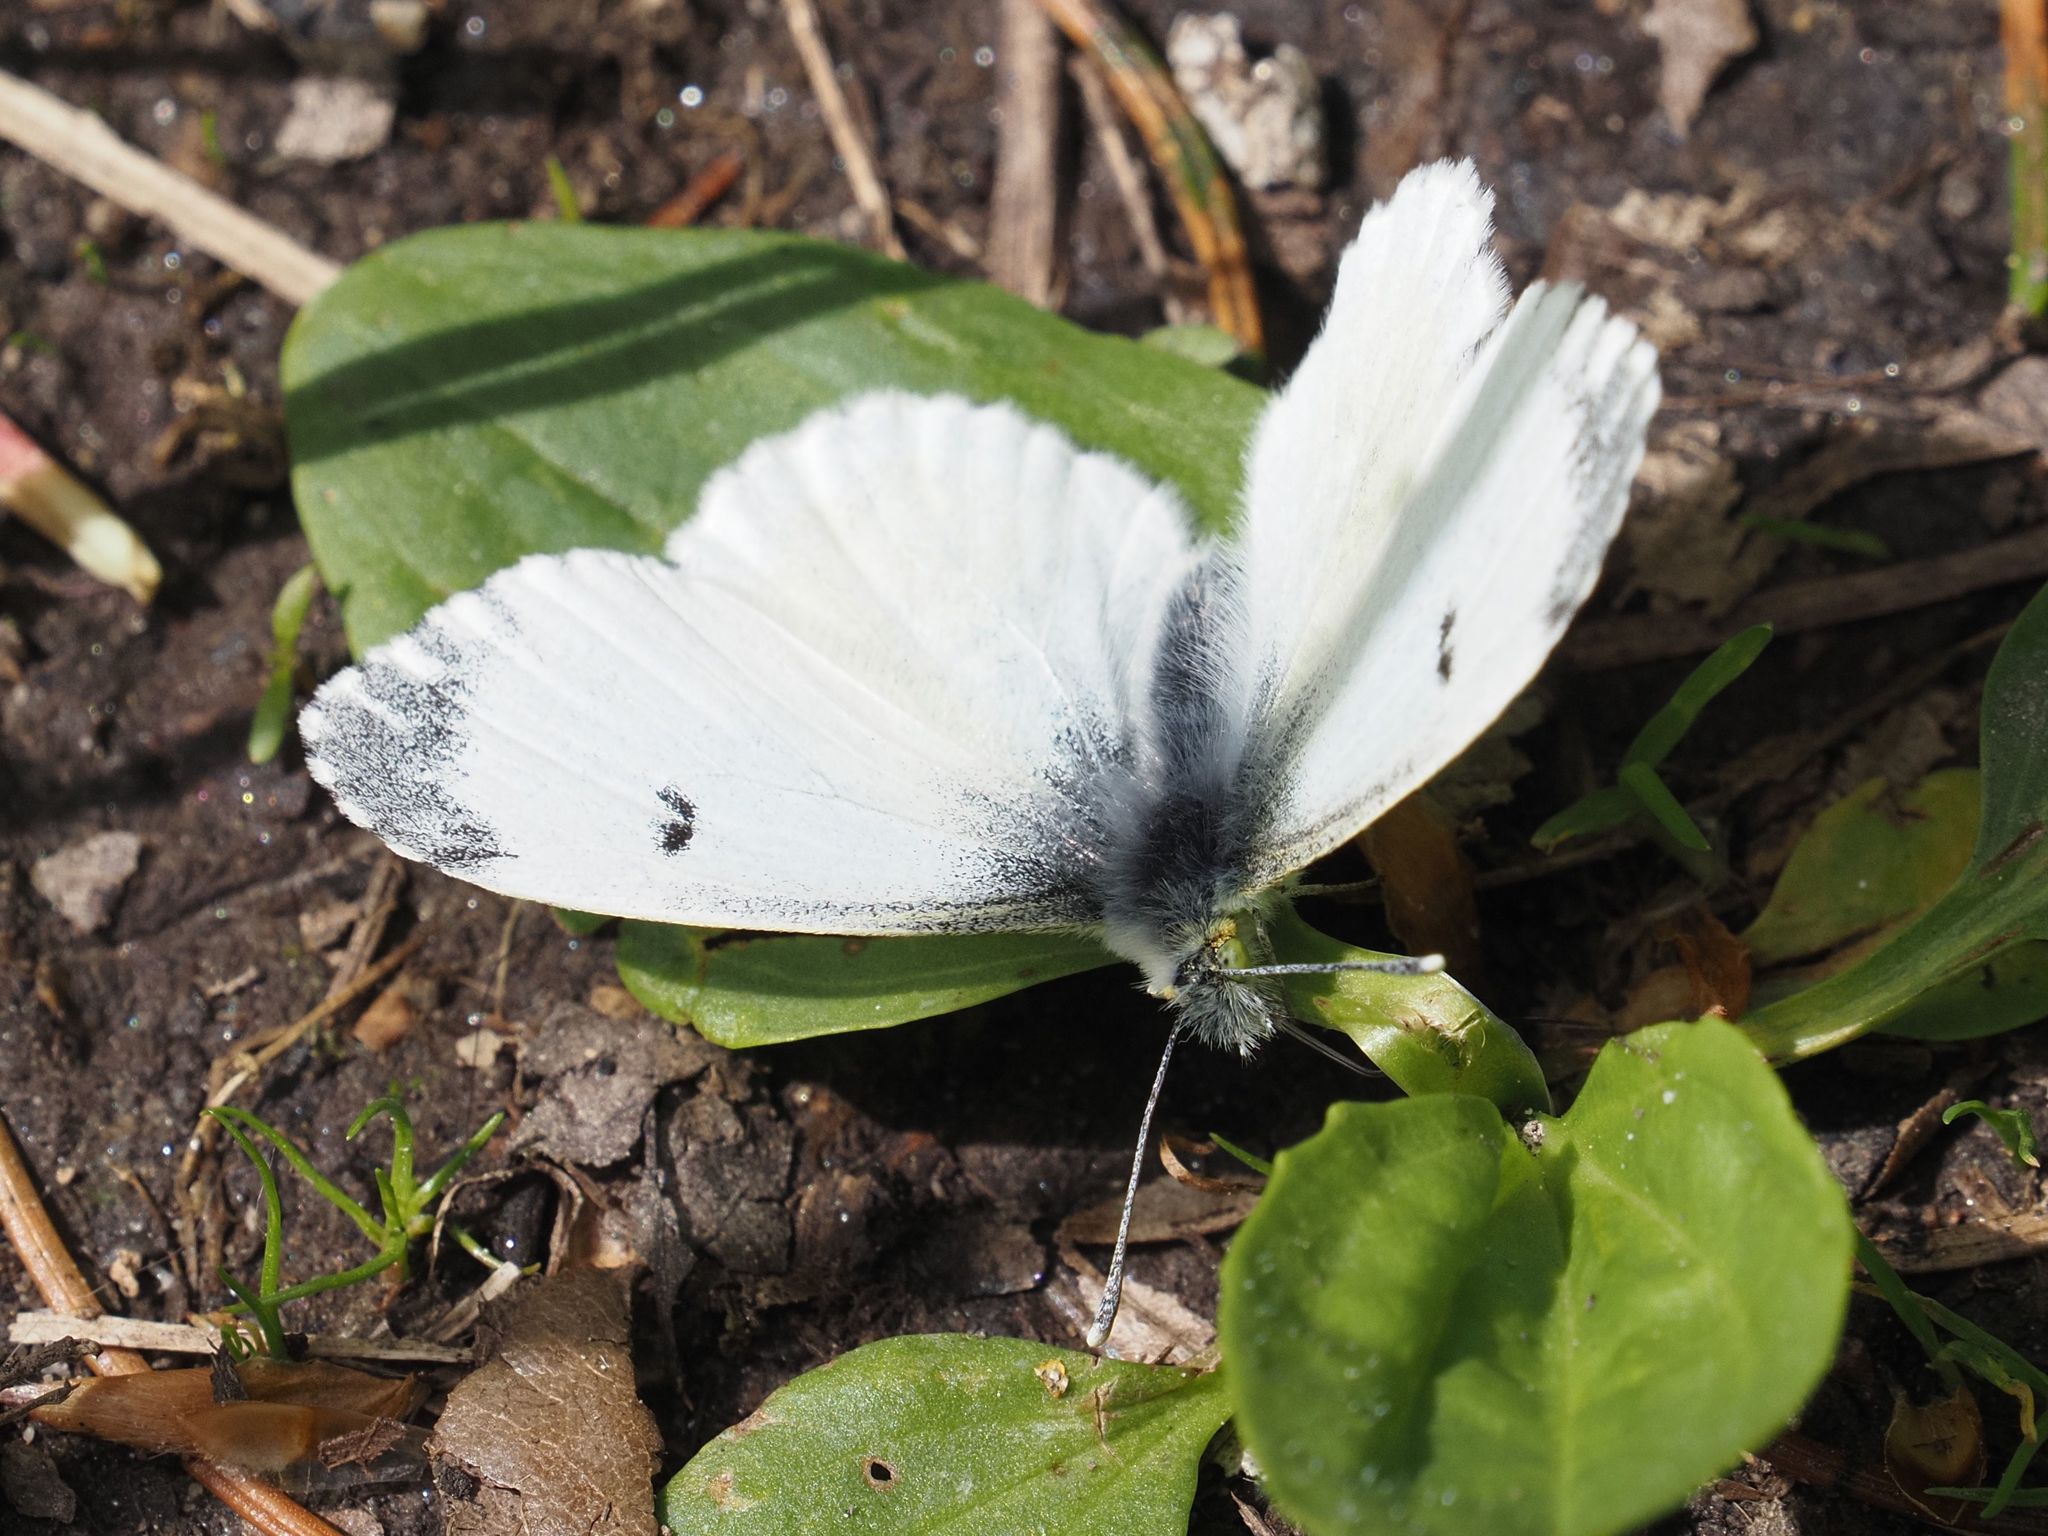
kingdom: Animalia
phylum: Arthropoda
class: Insecta
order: Lepidoptera
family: Pieridae
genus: Anthocharis
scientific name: Anthocharis cardamines
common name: Orange-tip
